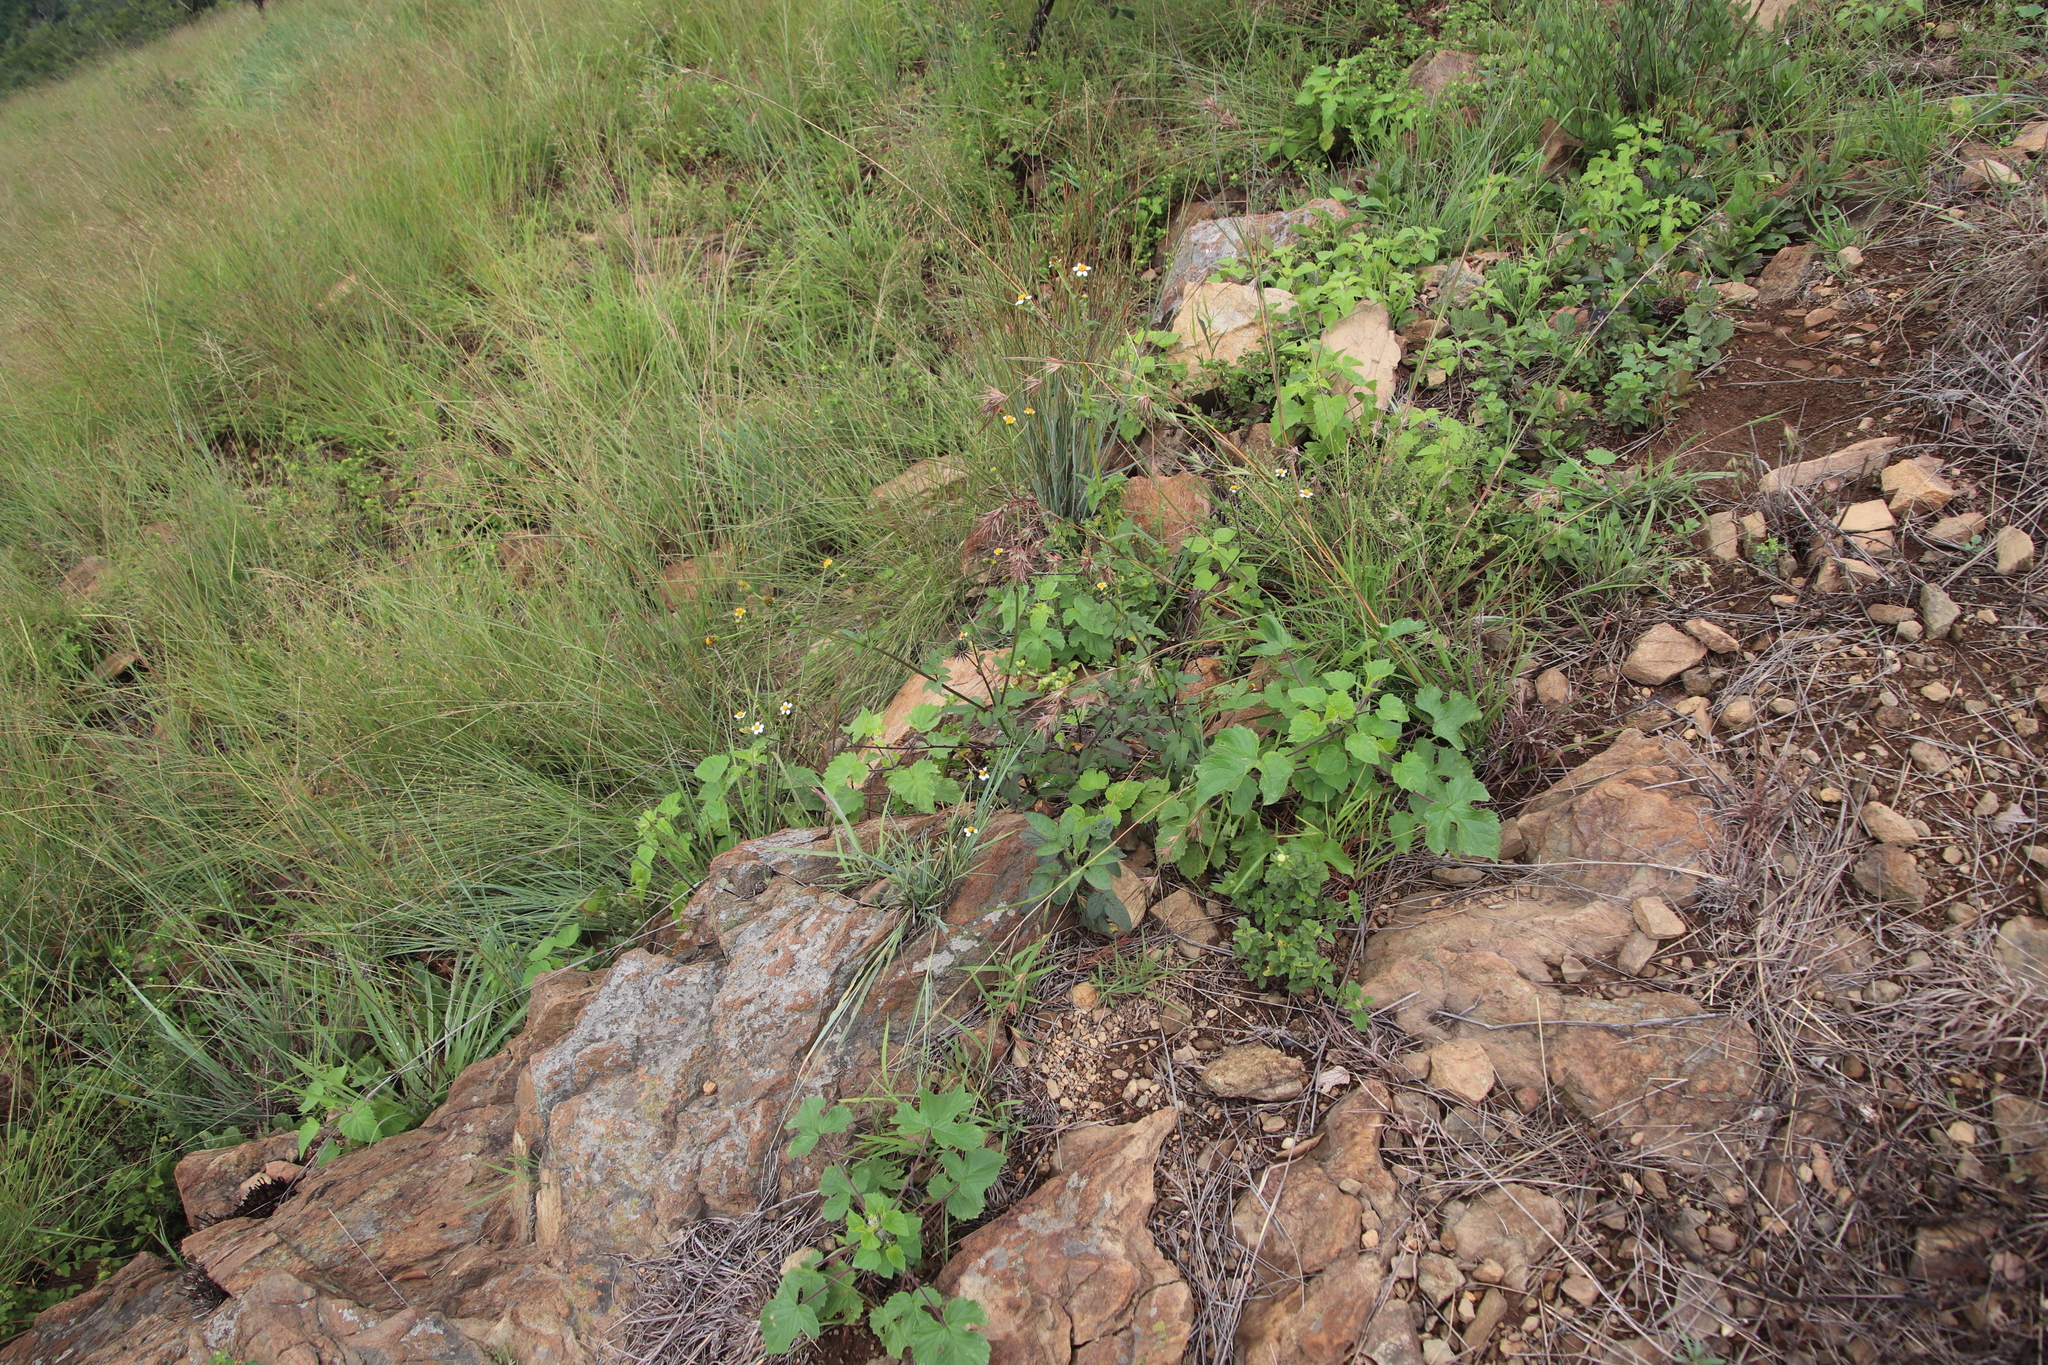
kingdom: Plantae
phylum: Tracheophyta
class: Magnoliopsida
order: Asterales
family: Asteraceae
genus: Bidens
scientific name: Bidens pilosa
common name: Black-jack
